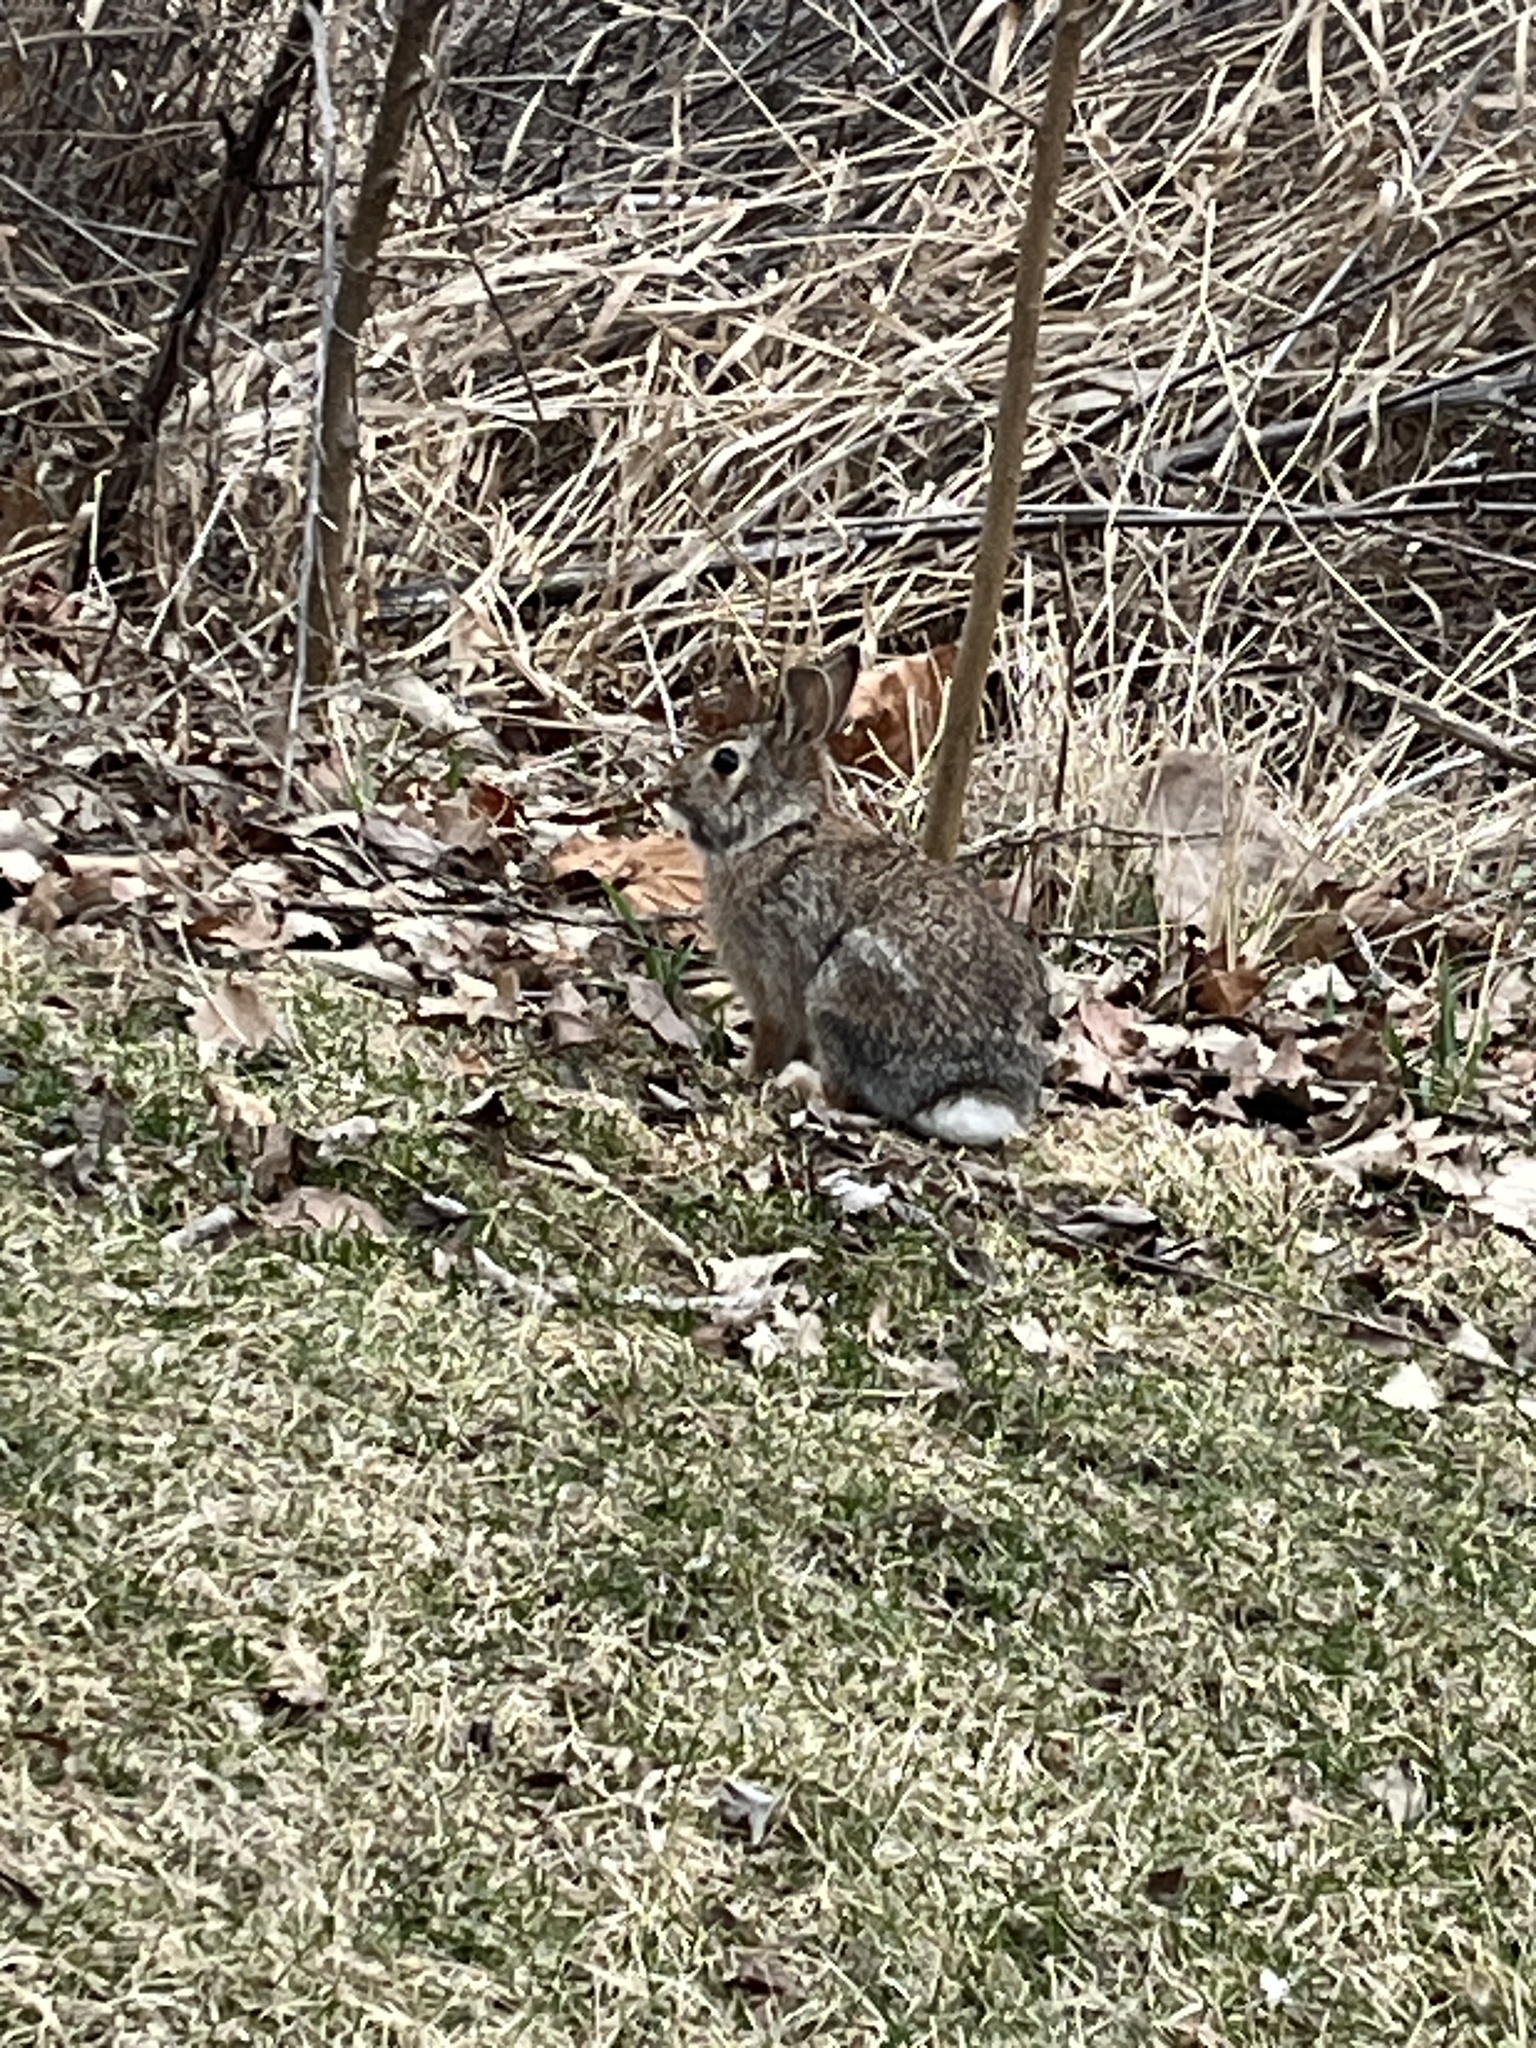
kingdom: Animalia
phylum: Chordata
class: Mammalia
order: Lagomorpha
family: Leporidae
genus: Sylvilagus
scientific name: Sylvilagus floridanus
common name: Eastern cottontail
